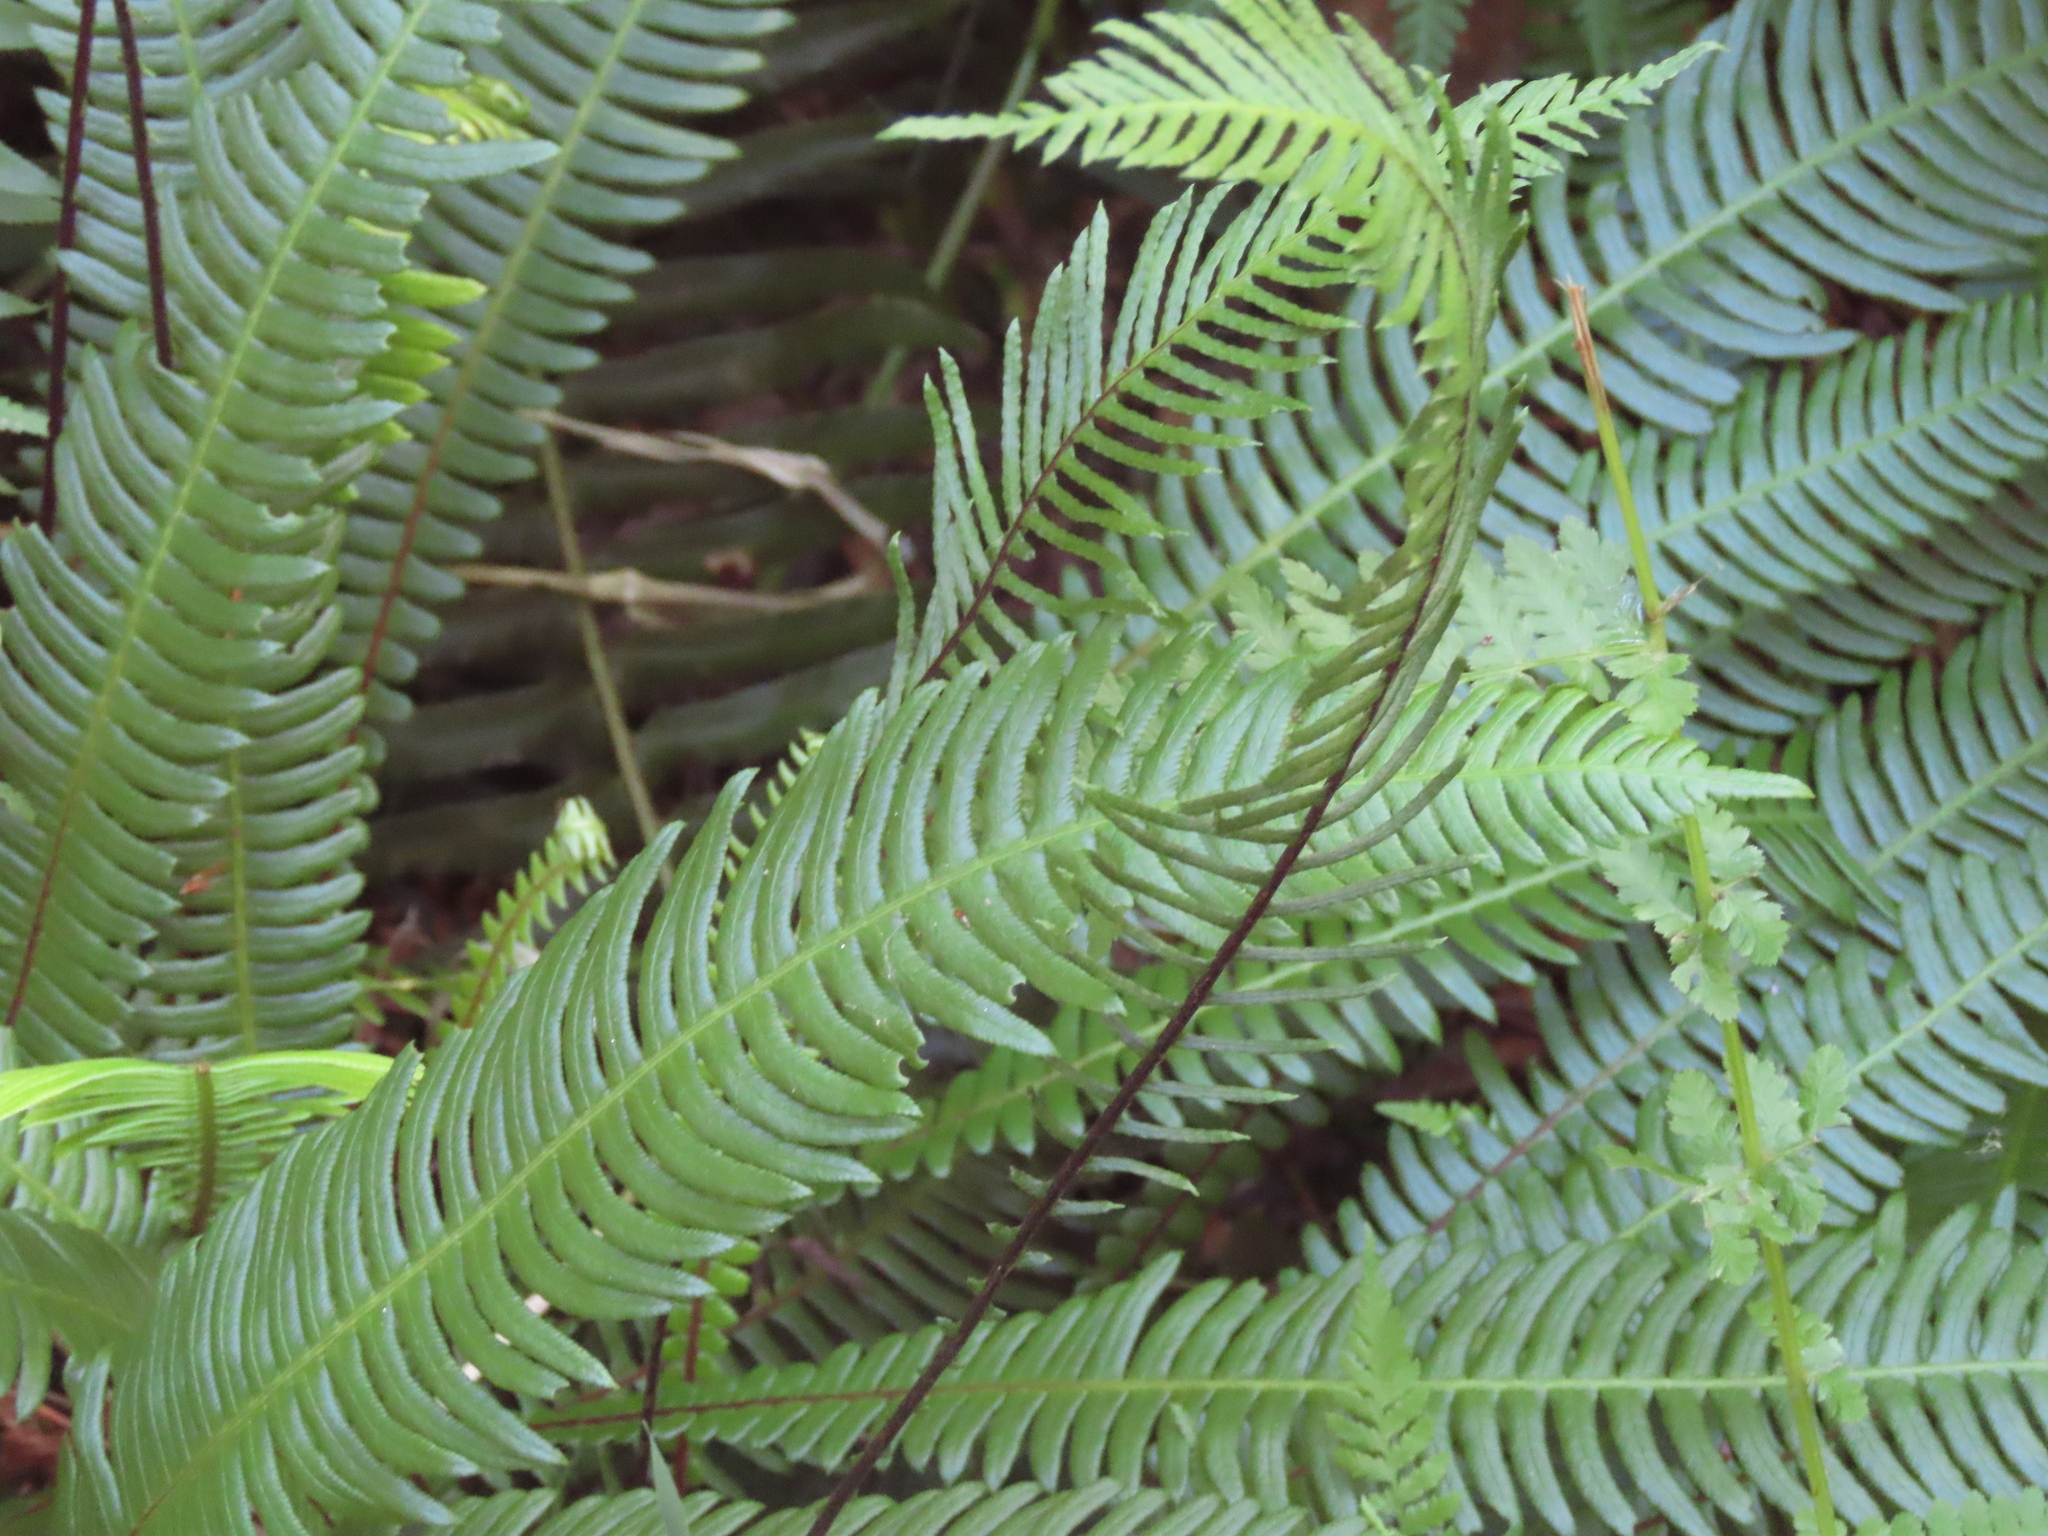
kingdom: Plantae
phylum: Tracheophyta
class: Polypodiopsida
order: Polypodiales
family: Blechnaceae
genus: Struthiopteris
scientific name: Struthiopteris spicant
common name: Deer fern
